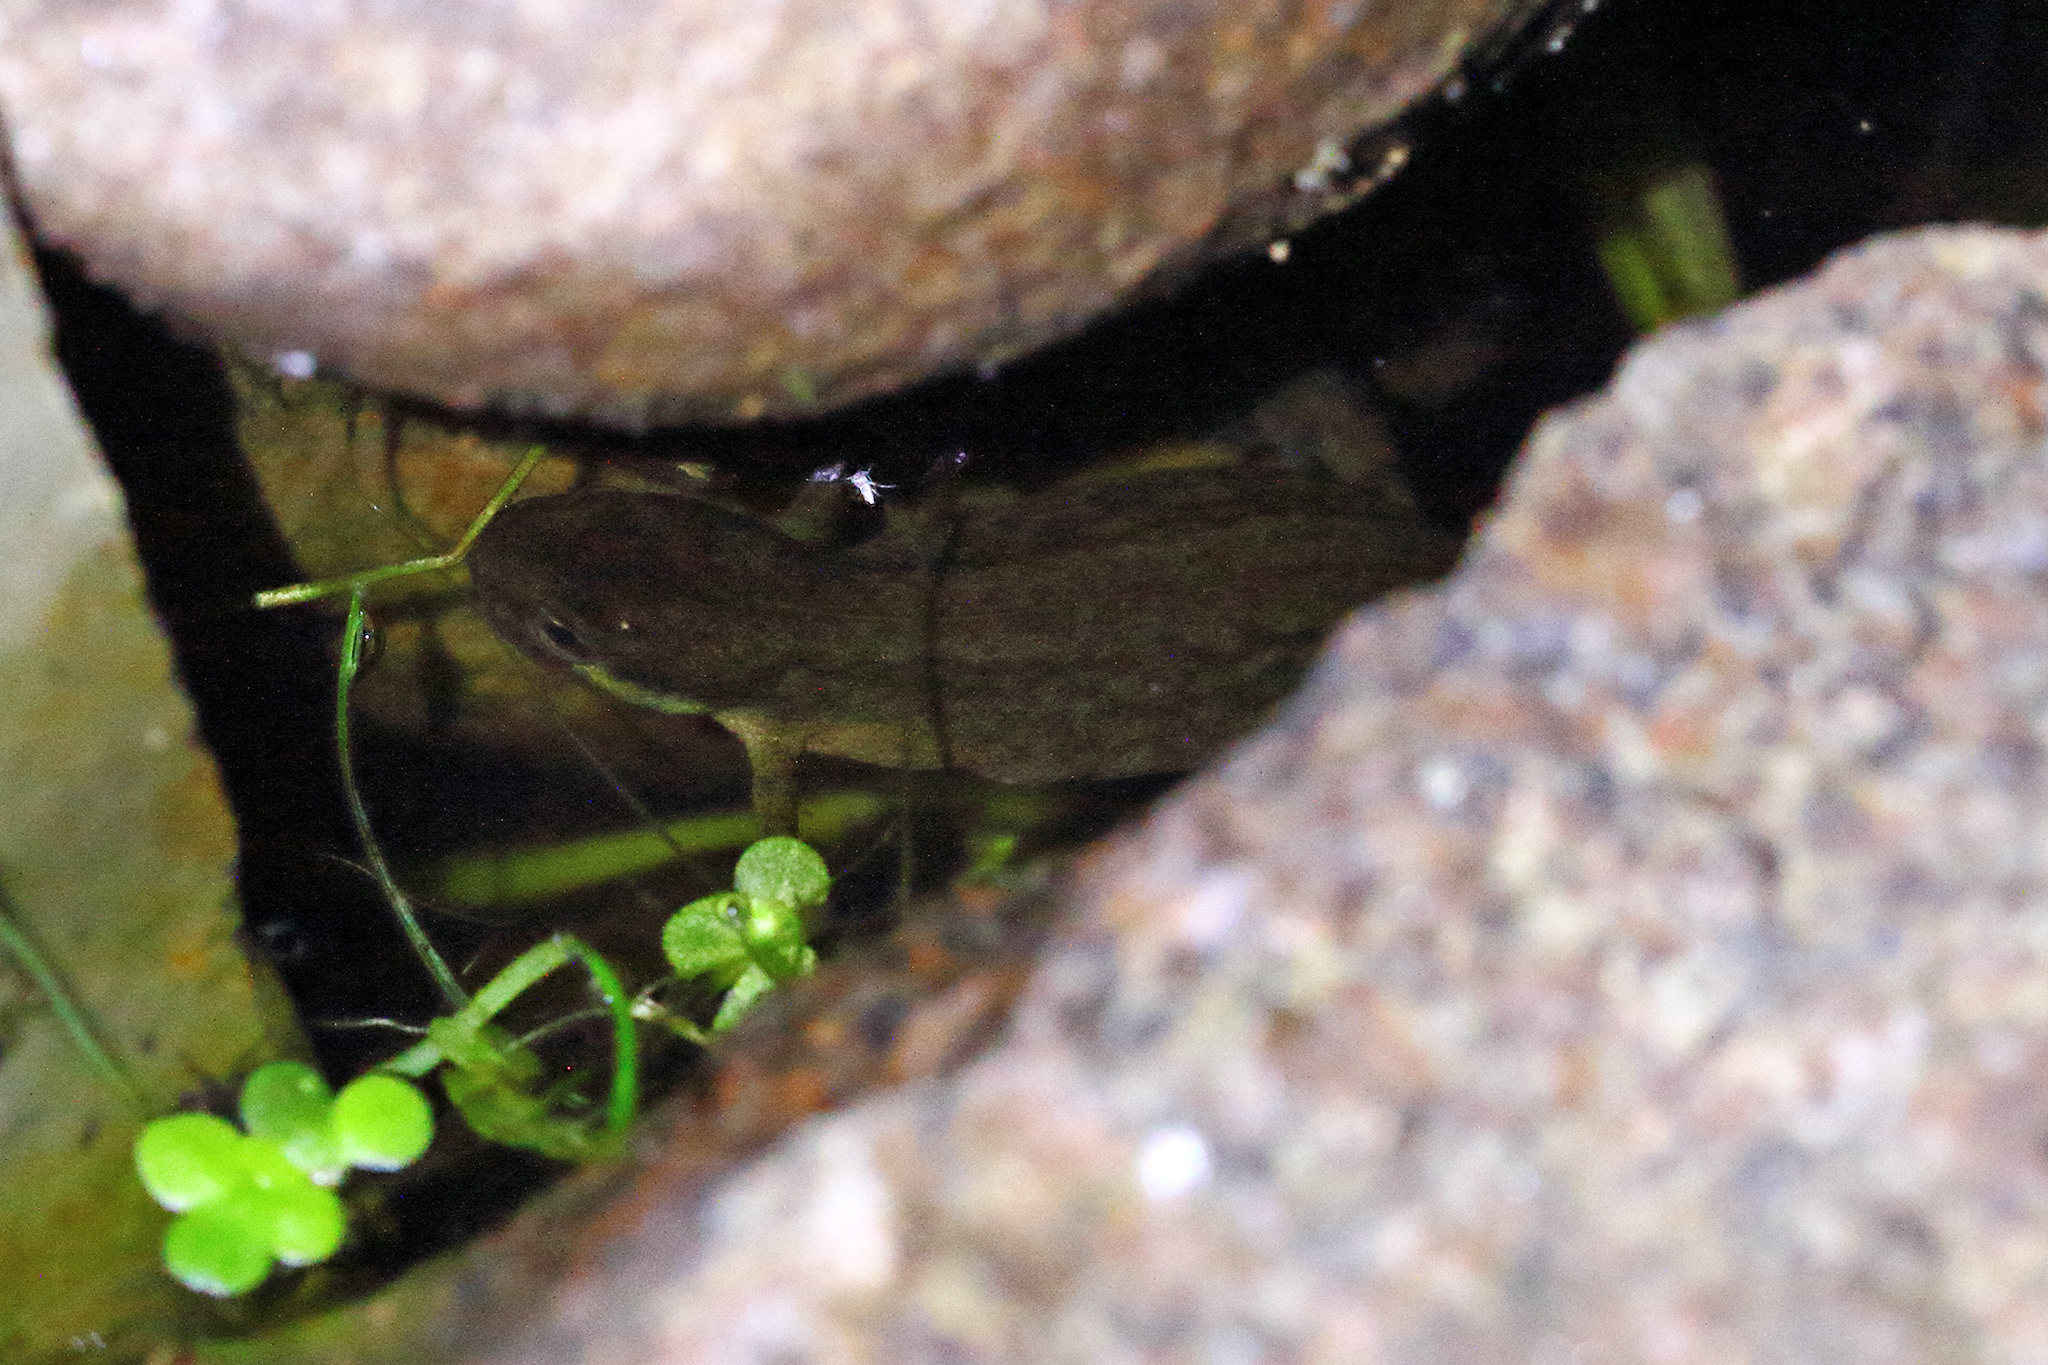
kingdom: Animalia
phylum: Chordata
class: Amphibia
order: Caudata
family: Salamandridae
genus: Lissotriton
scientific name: Lissotriton vulgaris
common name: Smooth newt
